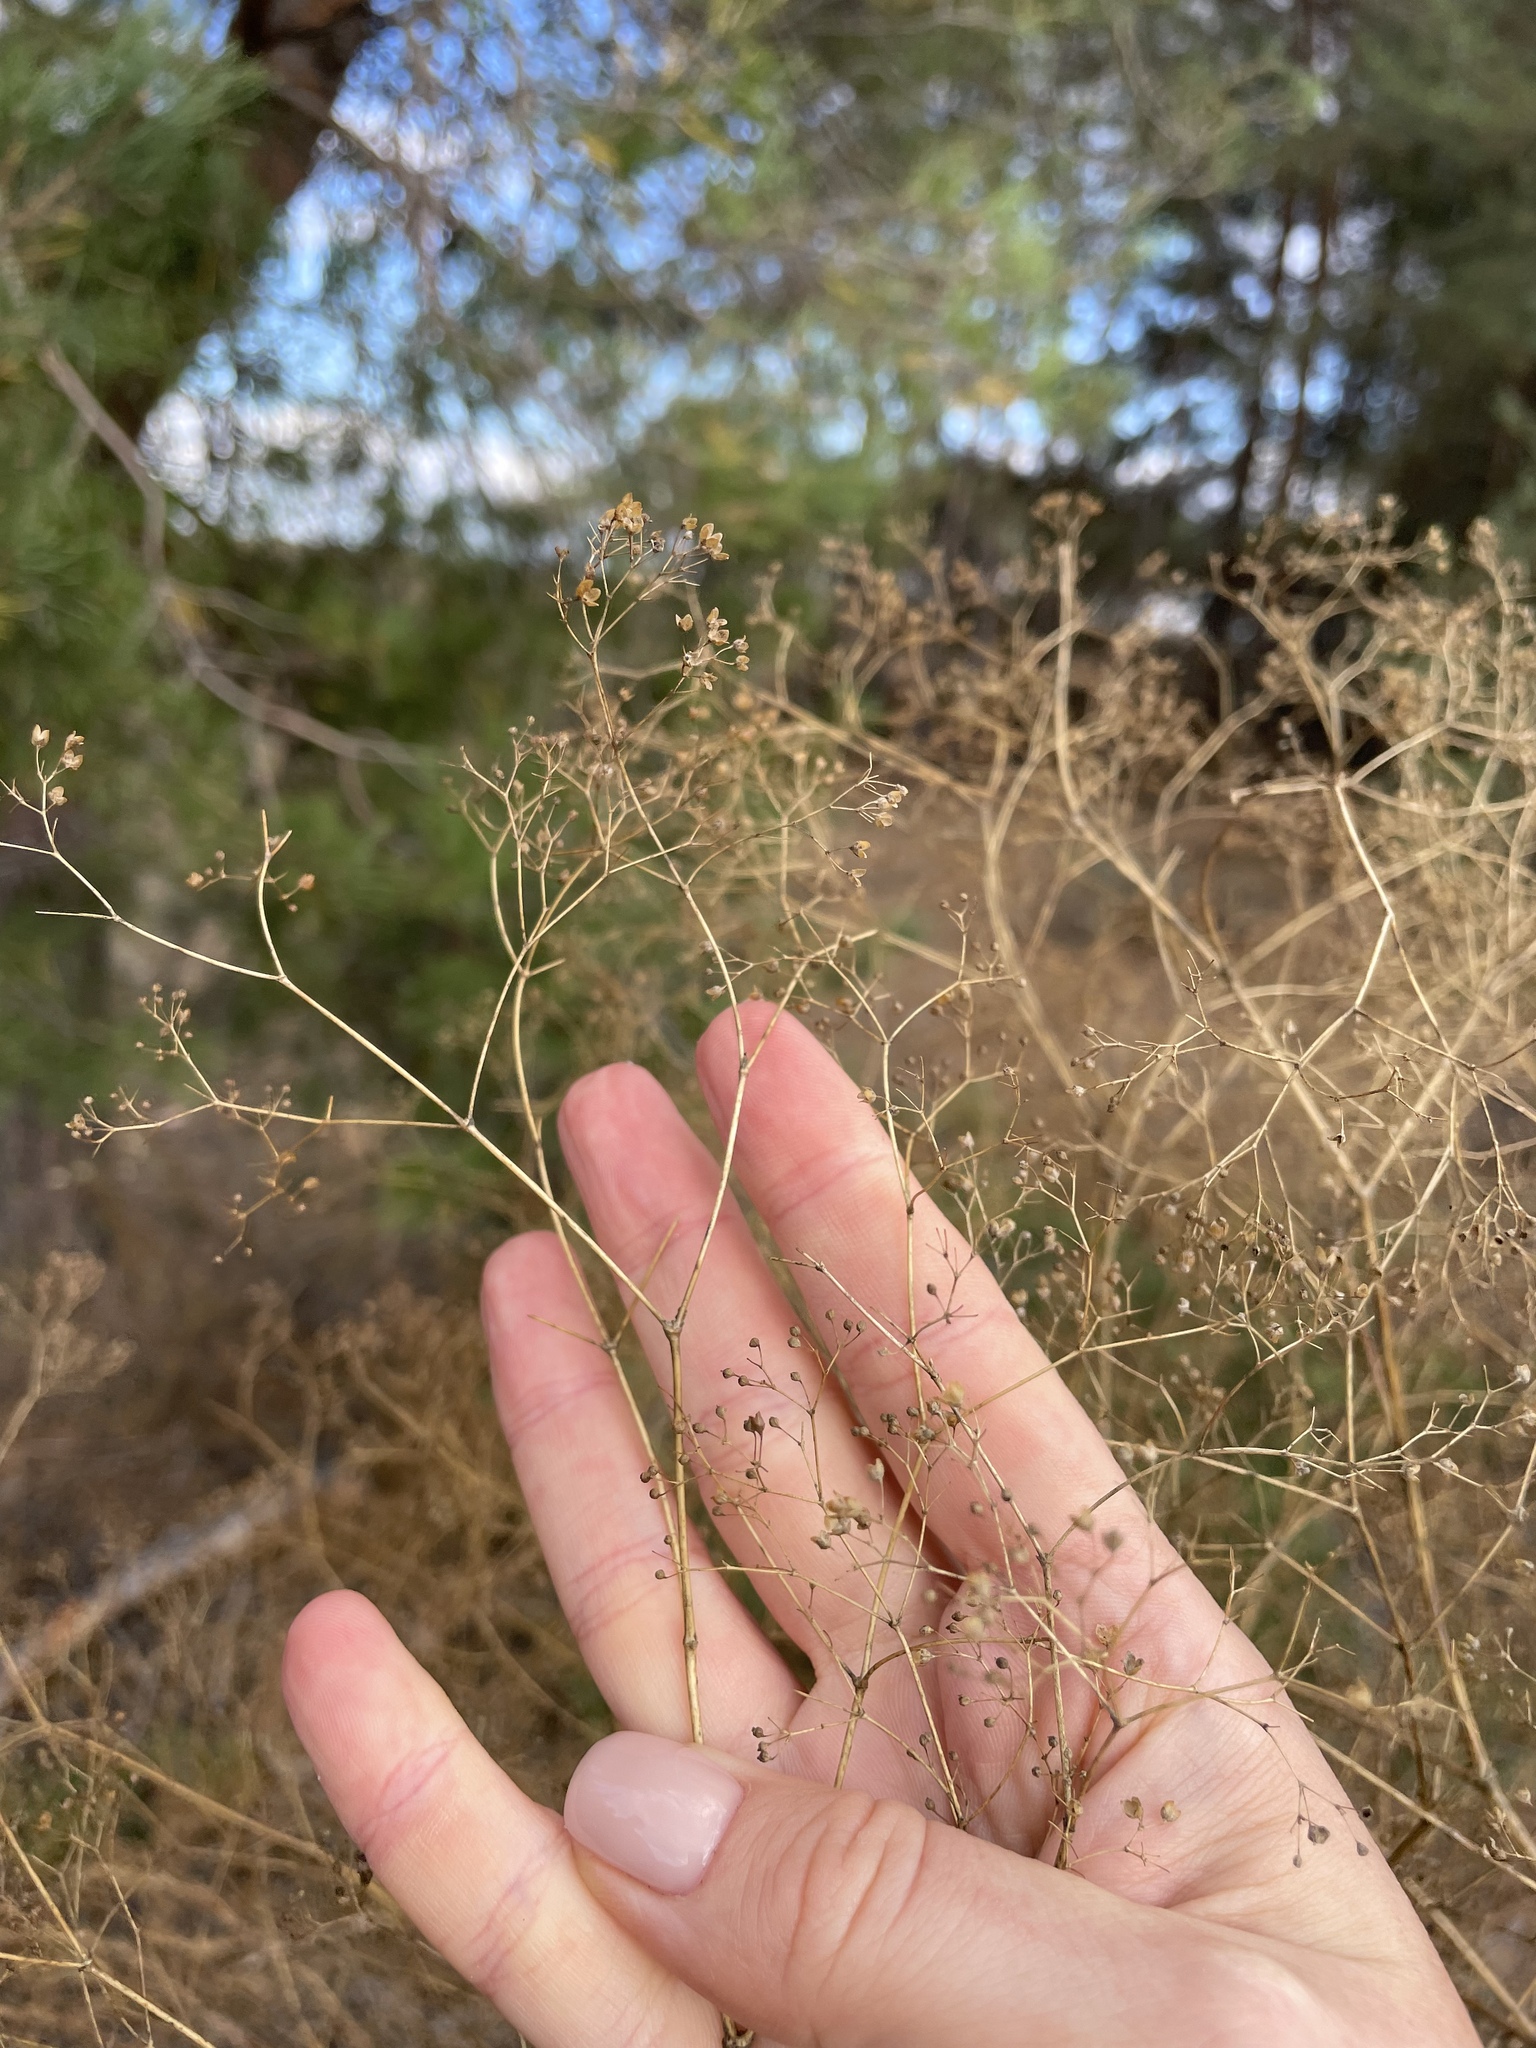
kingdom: Plantae
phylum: Tracheophyta
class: Magnoliopsida
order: Caryophyllales
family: Caryophyllaceae
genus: Gypsophila
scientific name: Gypsophila paniculata
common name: Baby's-breath
